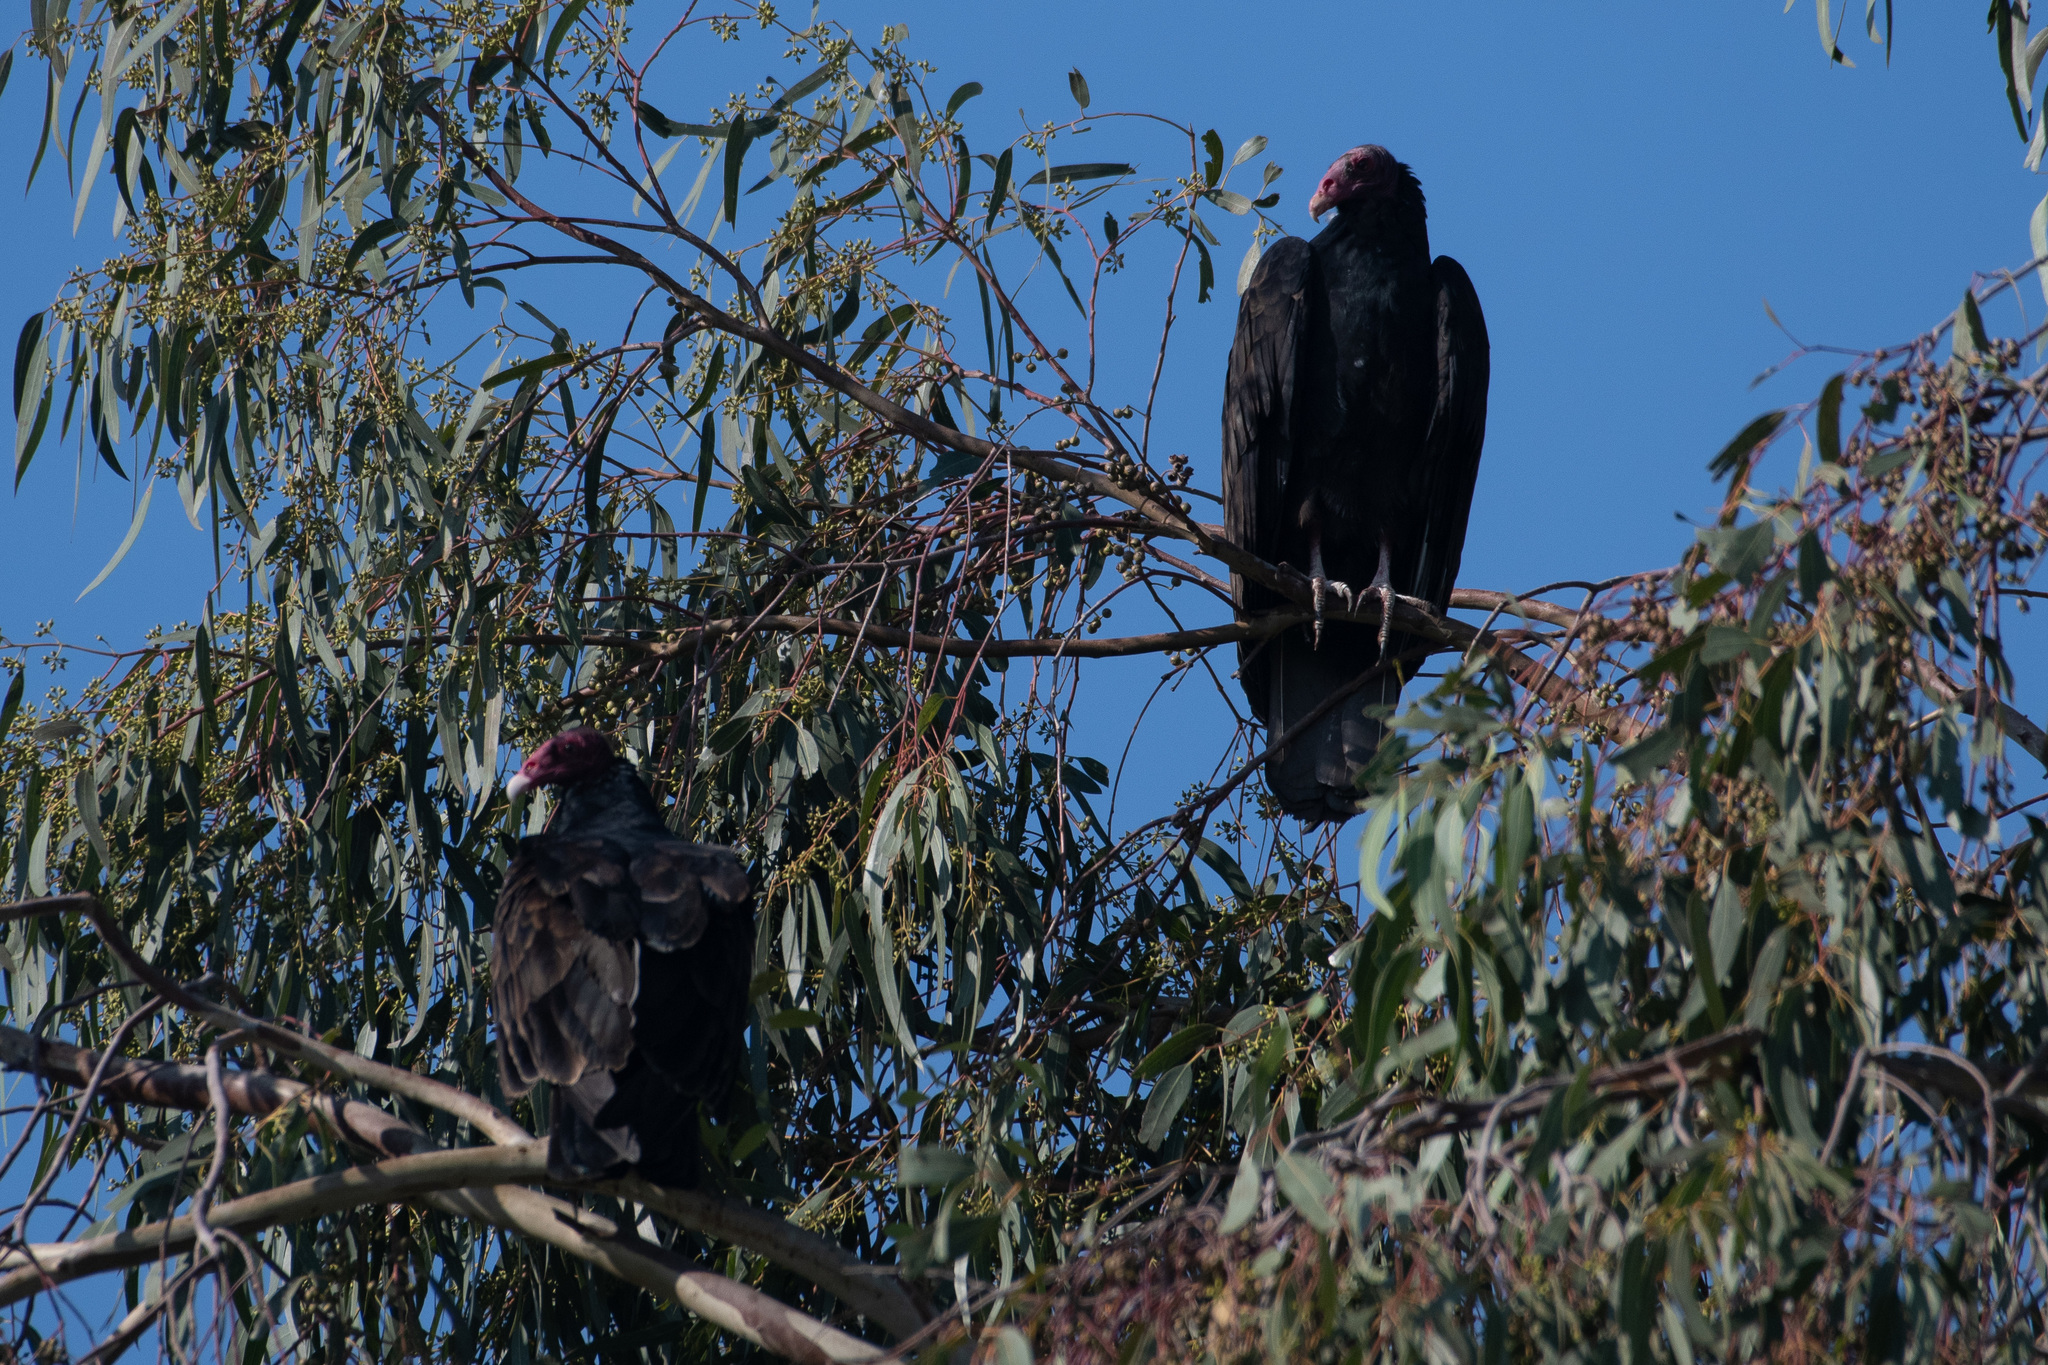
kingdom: Animalia
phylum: Chordata
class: Aves
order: Accipitriformes
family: Cathartidae
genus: Cathartes
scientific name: Cathartes aura
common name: Turkey vulture
